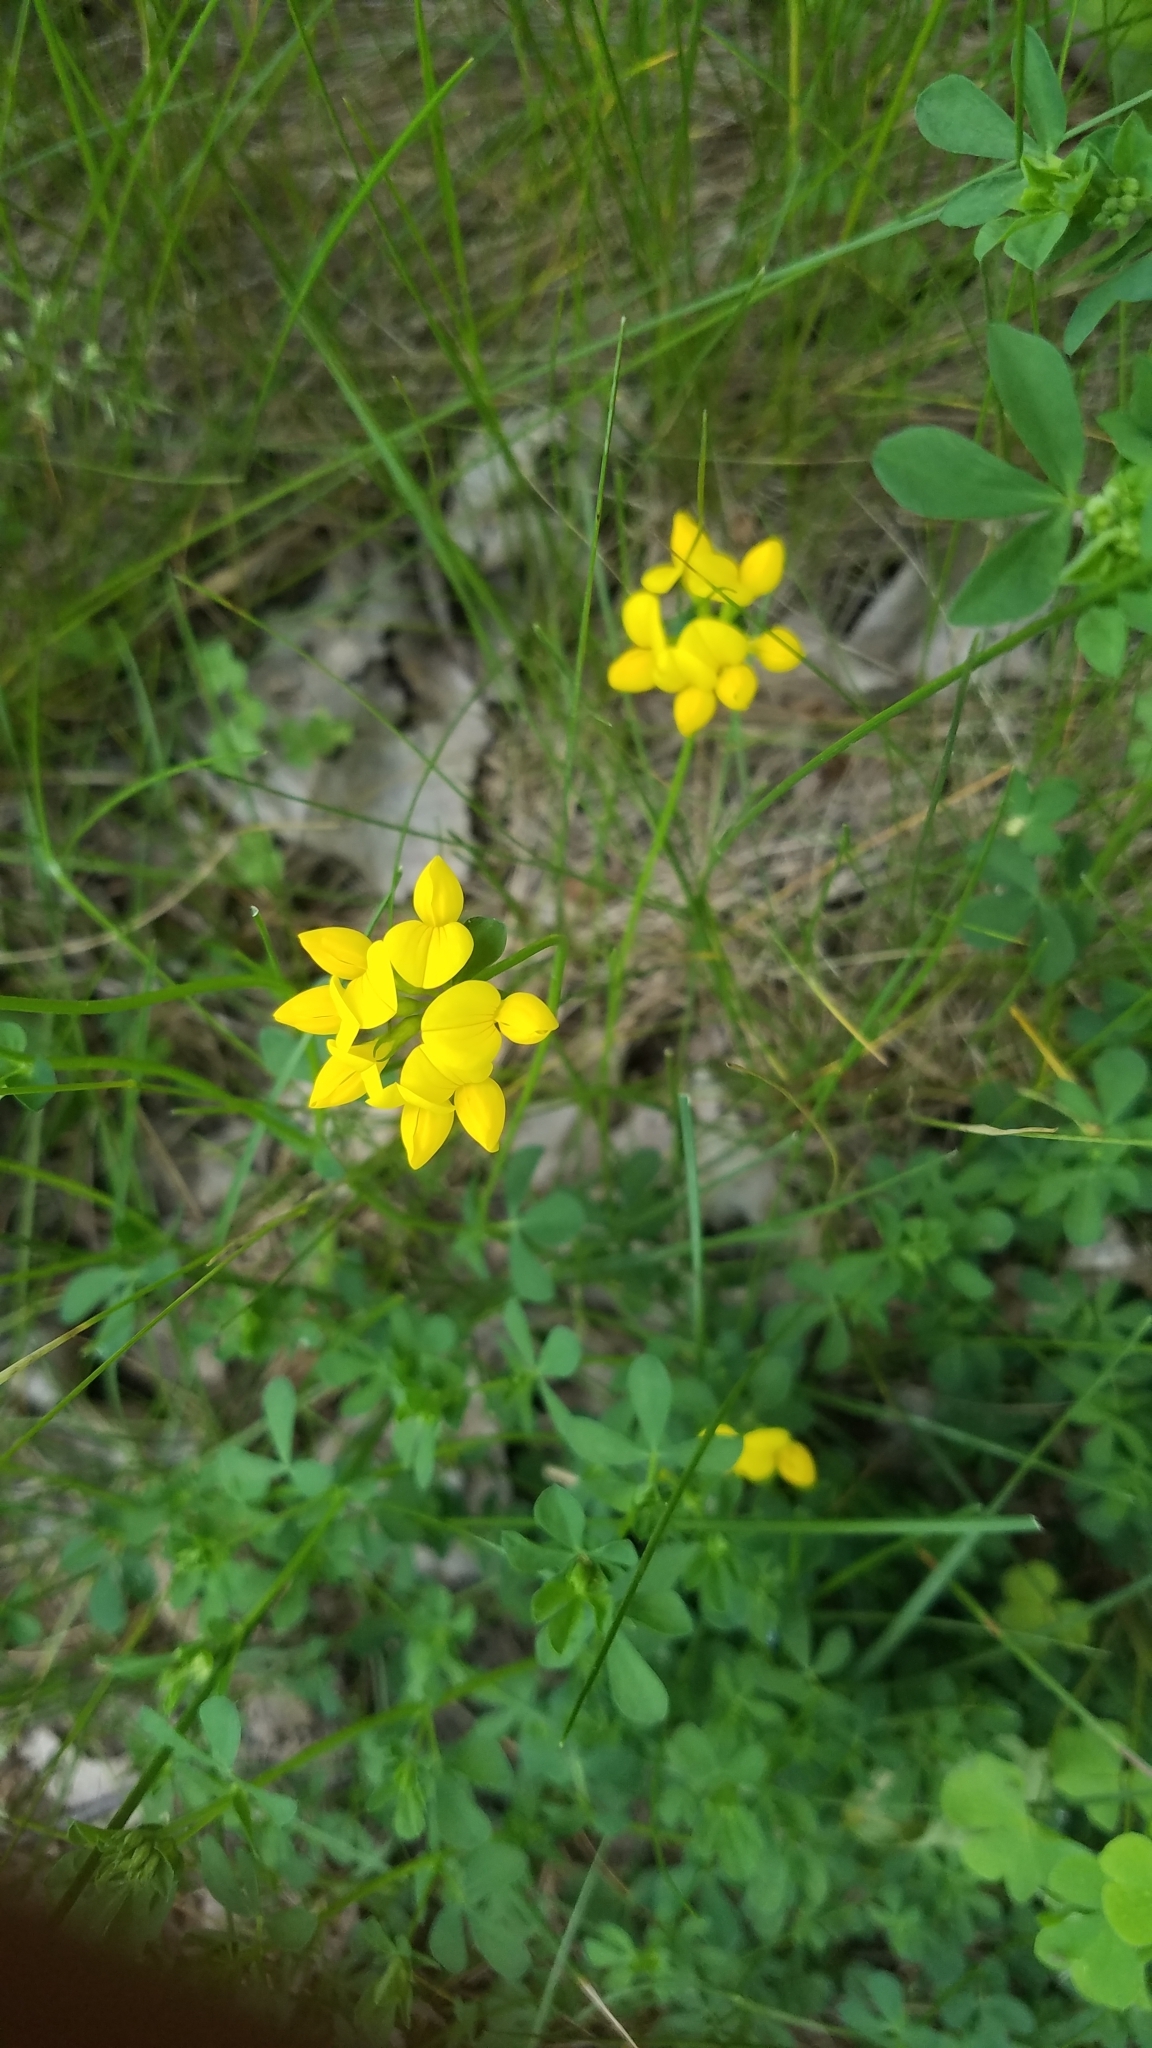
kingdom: Plantae
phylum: Tracheophyta
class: Magnoliopsida
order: Fabales
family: Fabaceae
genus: Lotus
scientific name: Lotus corniculatus
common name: Common bird's-foot-trefoil
